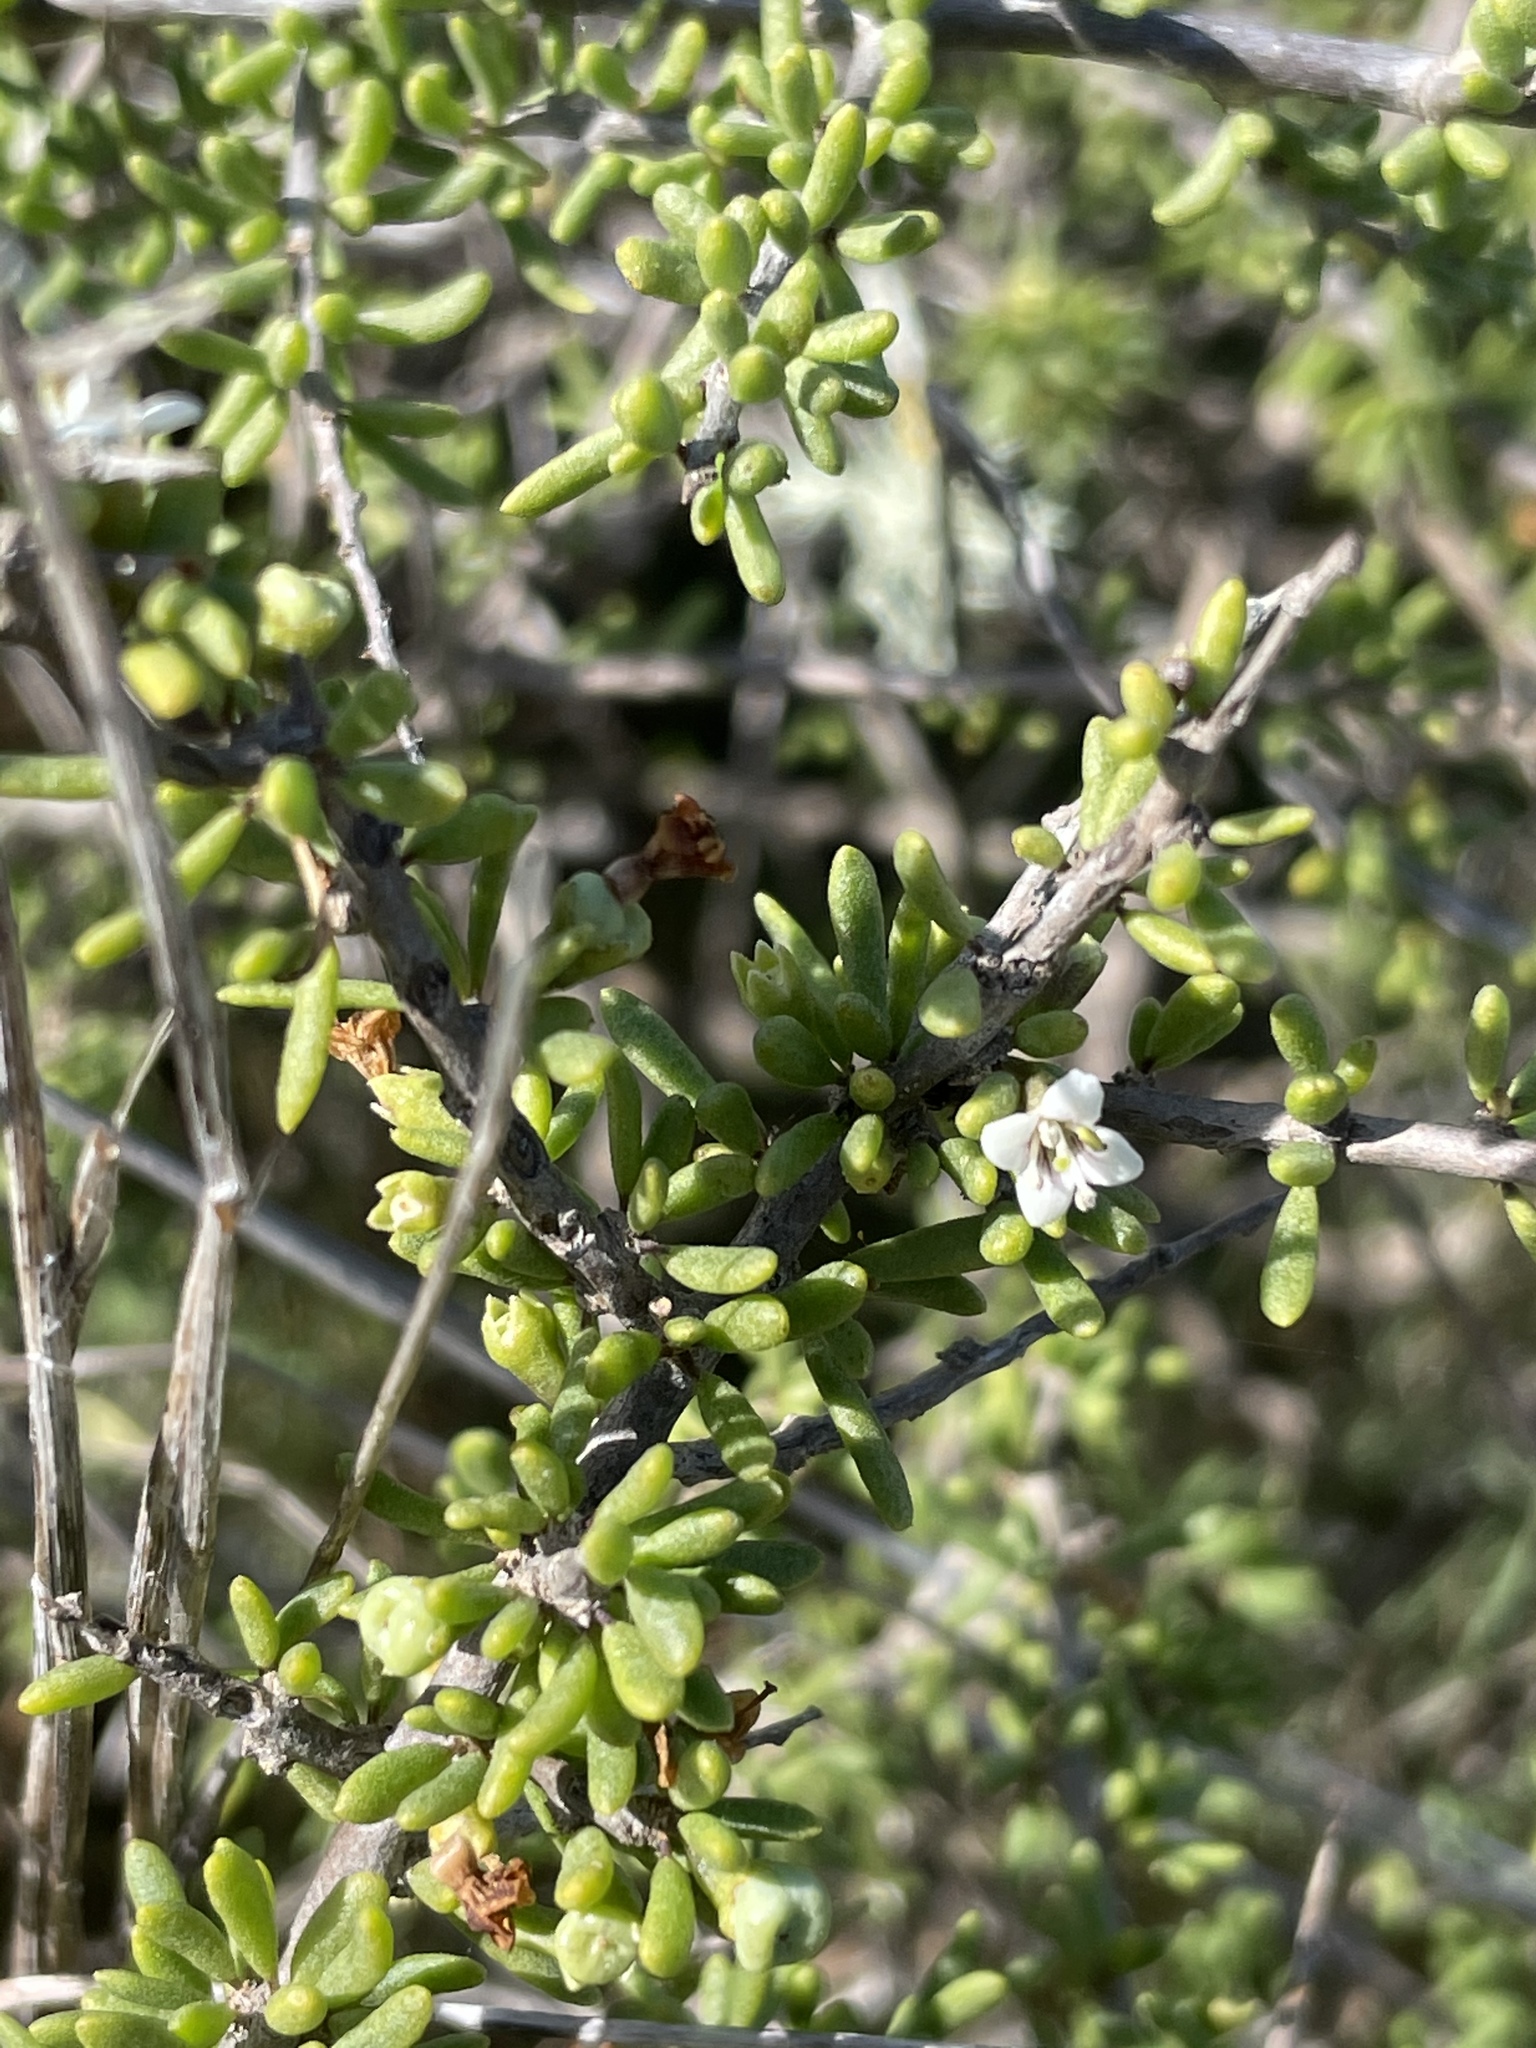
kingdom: Plantae
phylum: Tracheophyta
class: Magnoliopsida
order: Solanales
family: Solanaceae
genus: Lycium
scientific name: Lycium californicum
